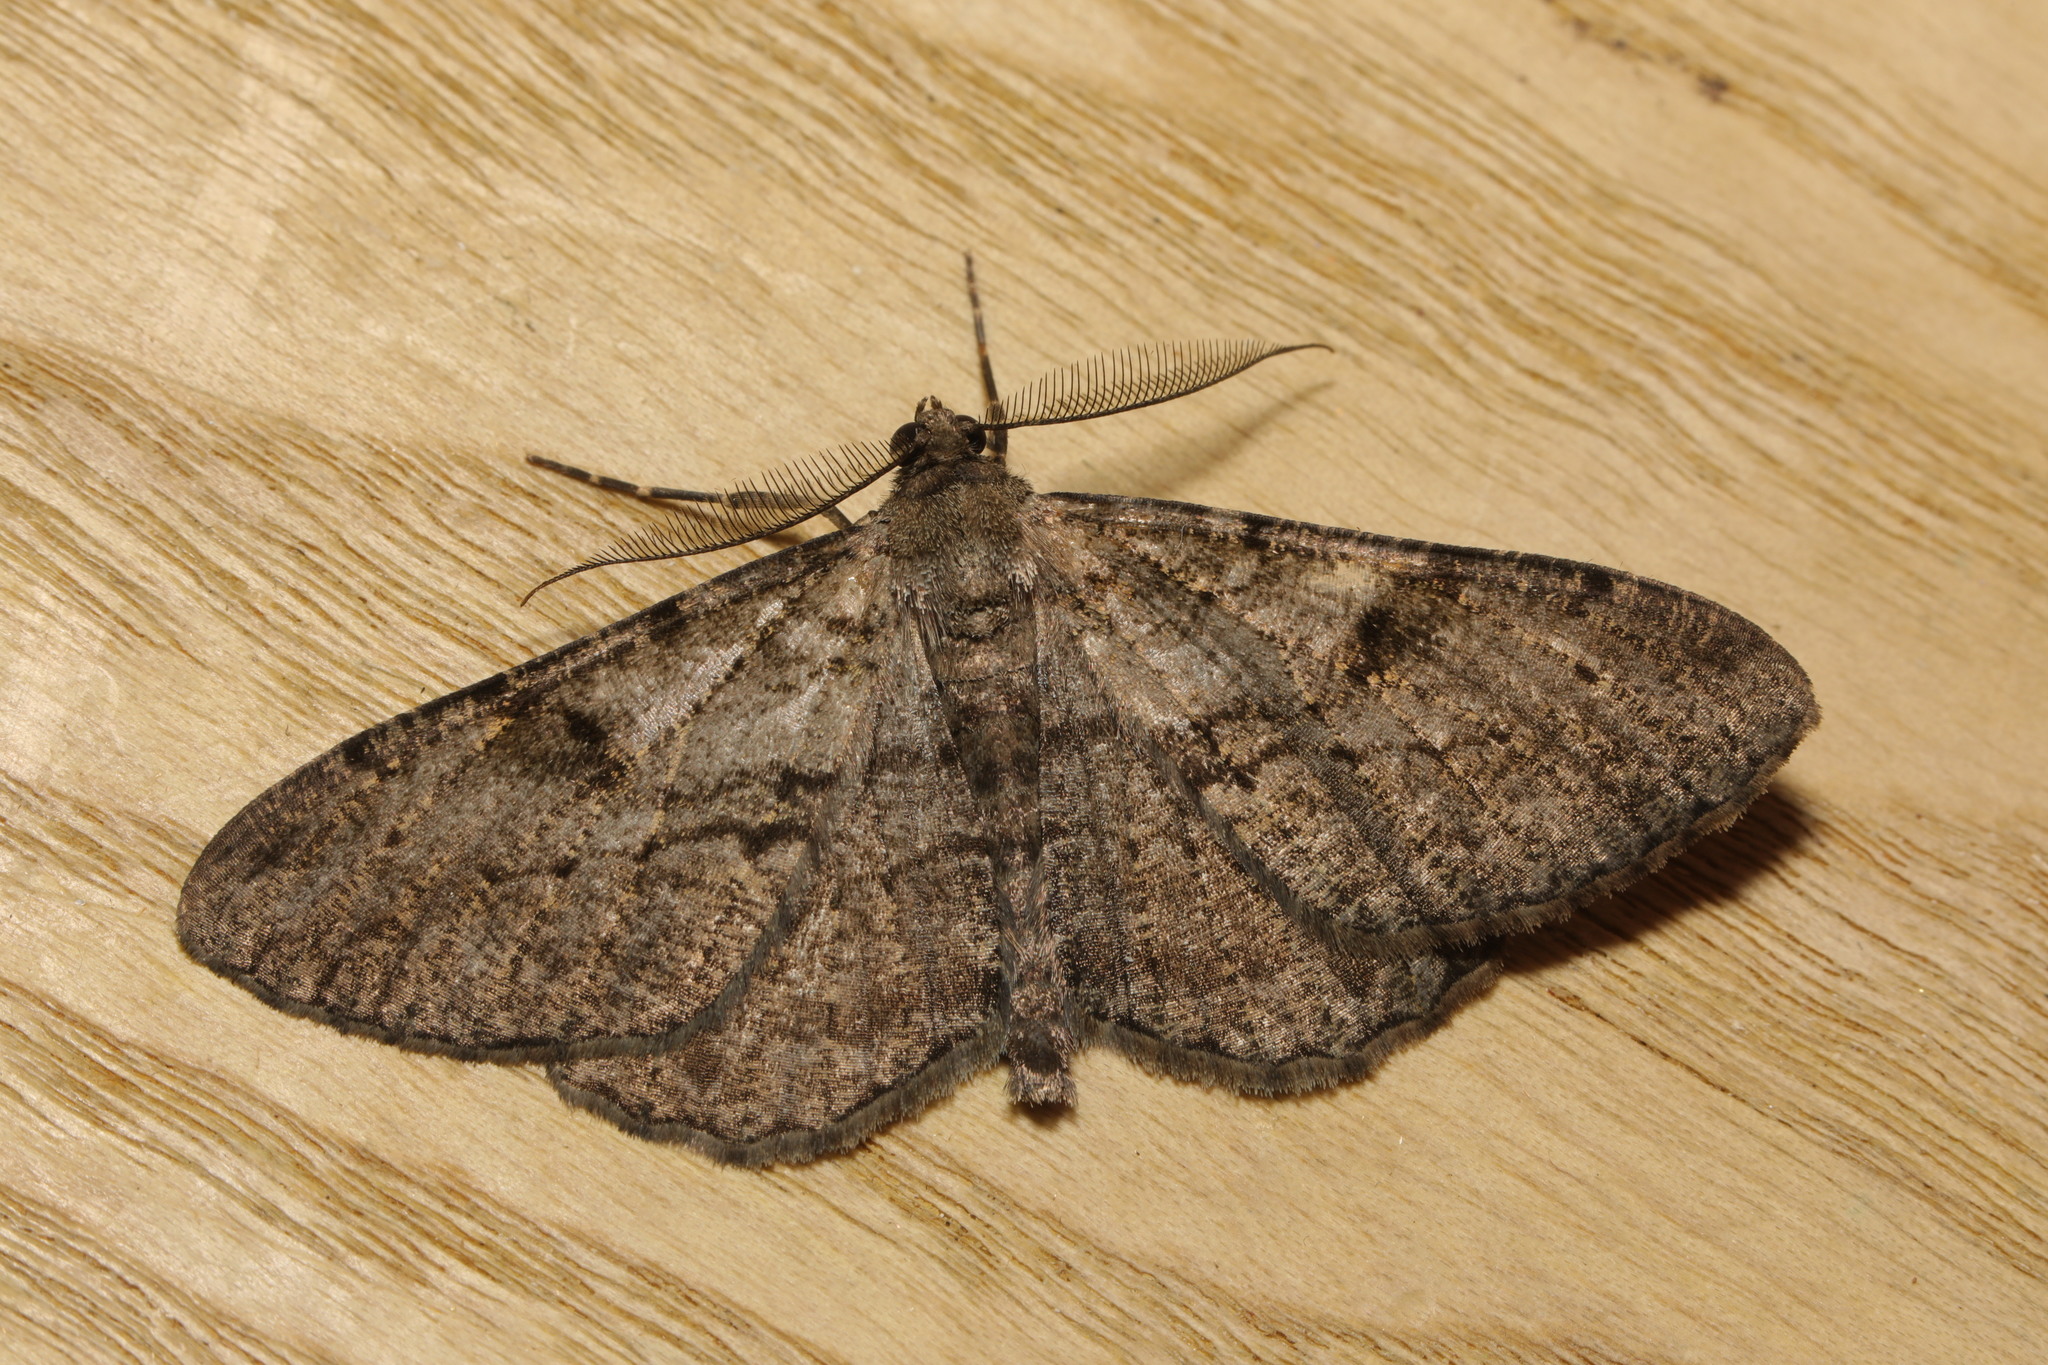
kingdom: Animalia
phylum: Arthropoda
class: Insecta
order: Lepidoptera
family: Geometridae
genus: Peribatodes
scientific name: Peribatodes rhomboidaria
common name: Willow beauty
